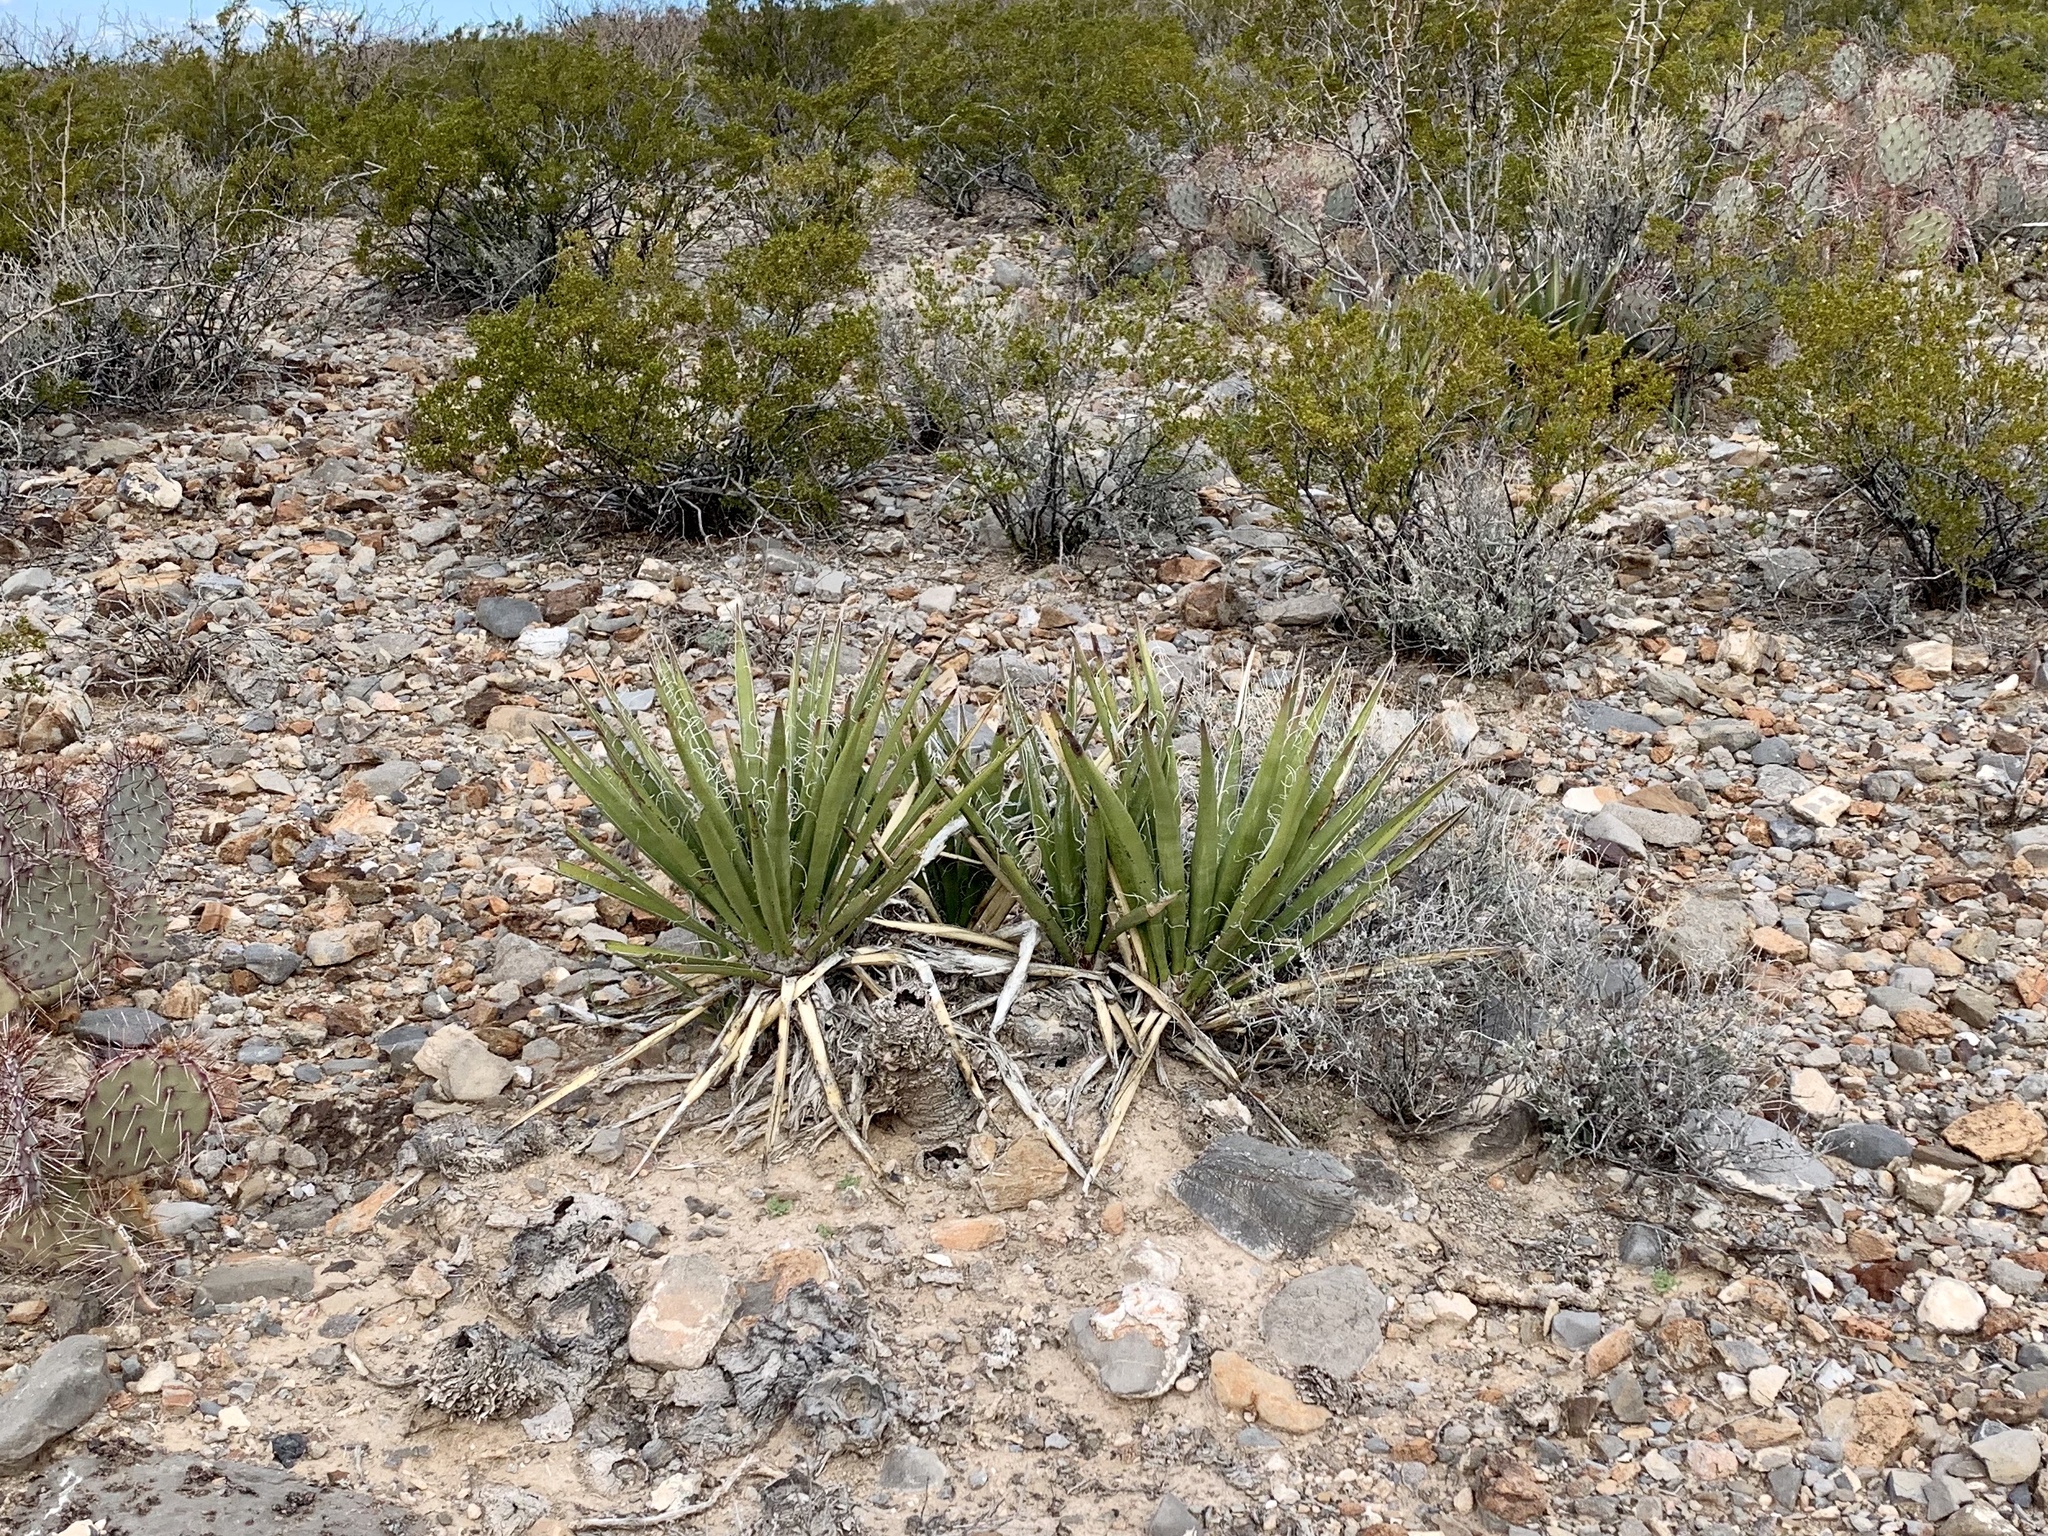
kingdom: Plantae
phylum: Tracheophyta
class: Liliopsida
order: Asparagales
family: Asparagaceae
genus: Yucca
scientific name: Yucca baccata
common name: Banana yucca
